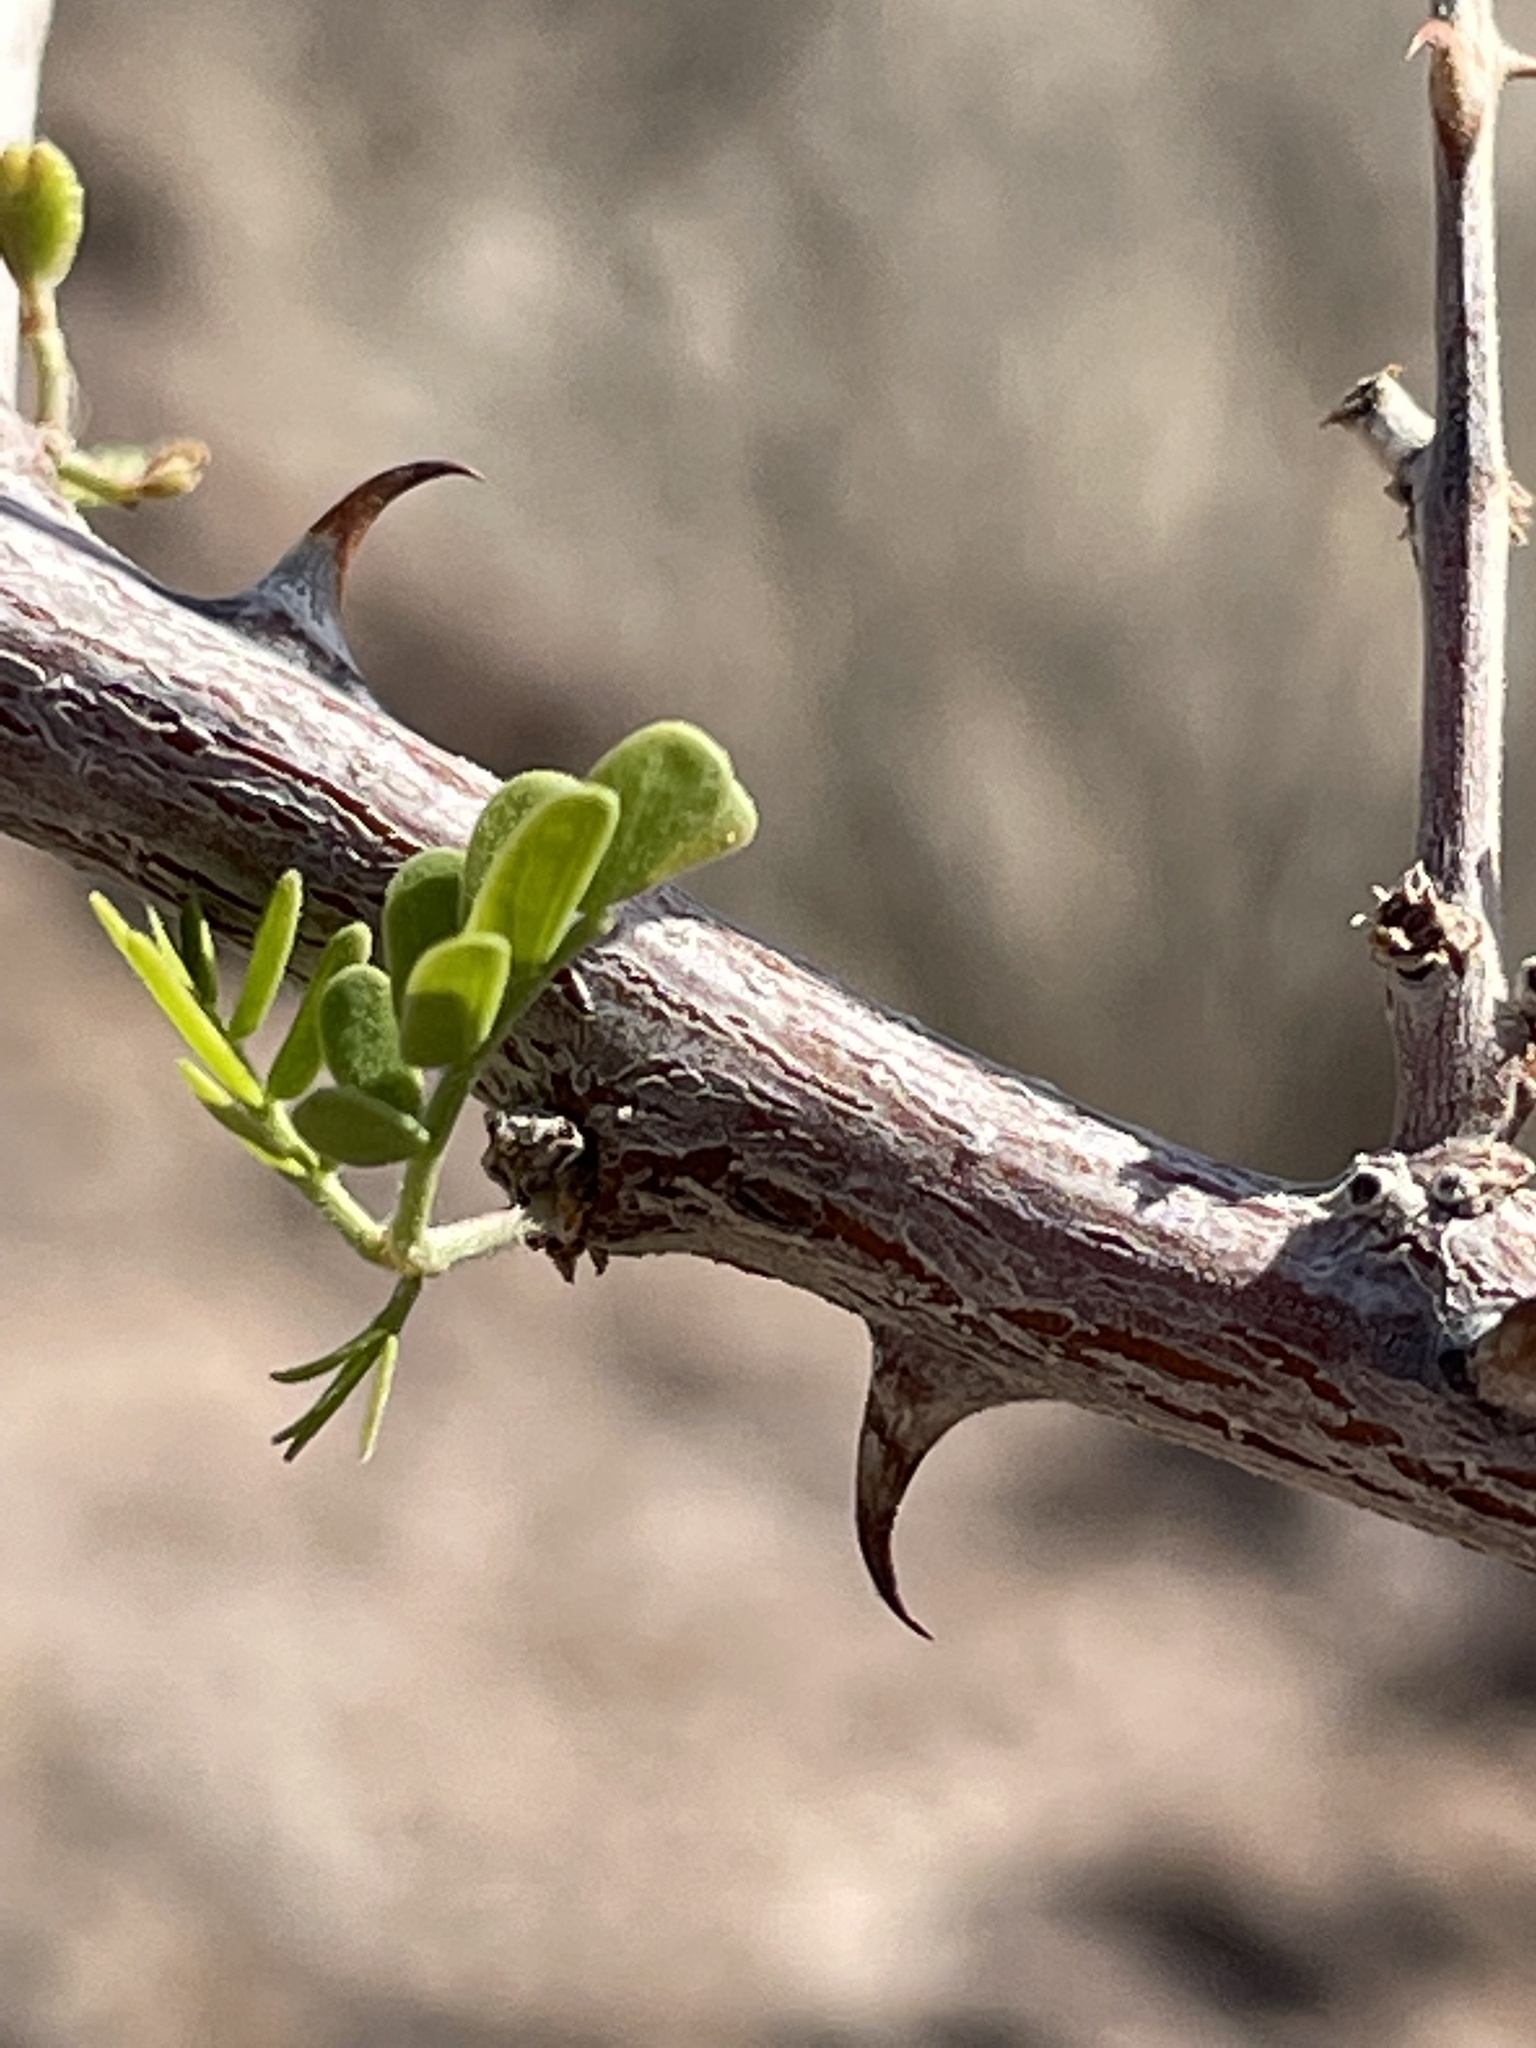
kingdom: Plantae
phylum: Tracheophyta
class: Magnoliopsida
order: Fabales
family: Fabaceae
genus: Senegalia
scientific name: Senegalia greggii
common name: Texas-mimosa
